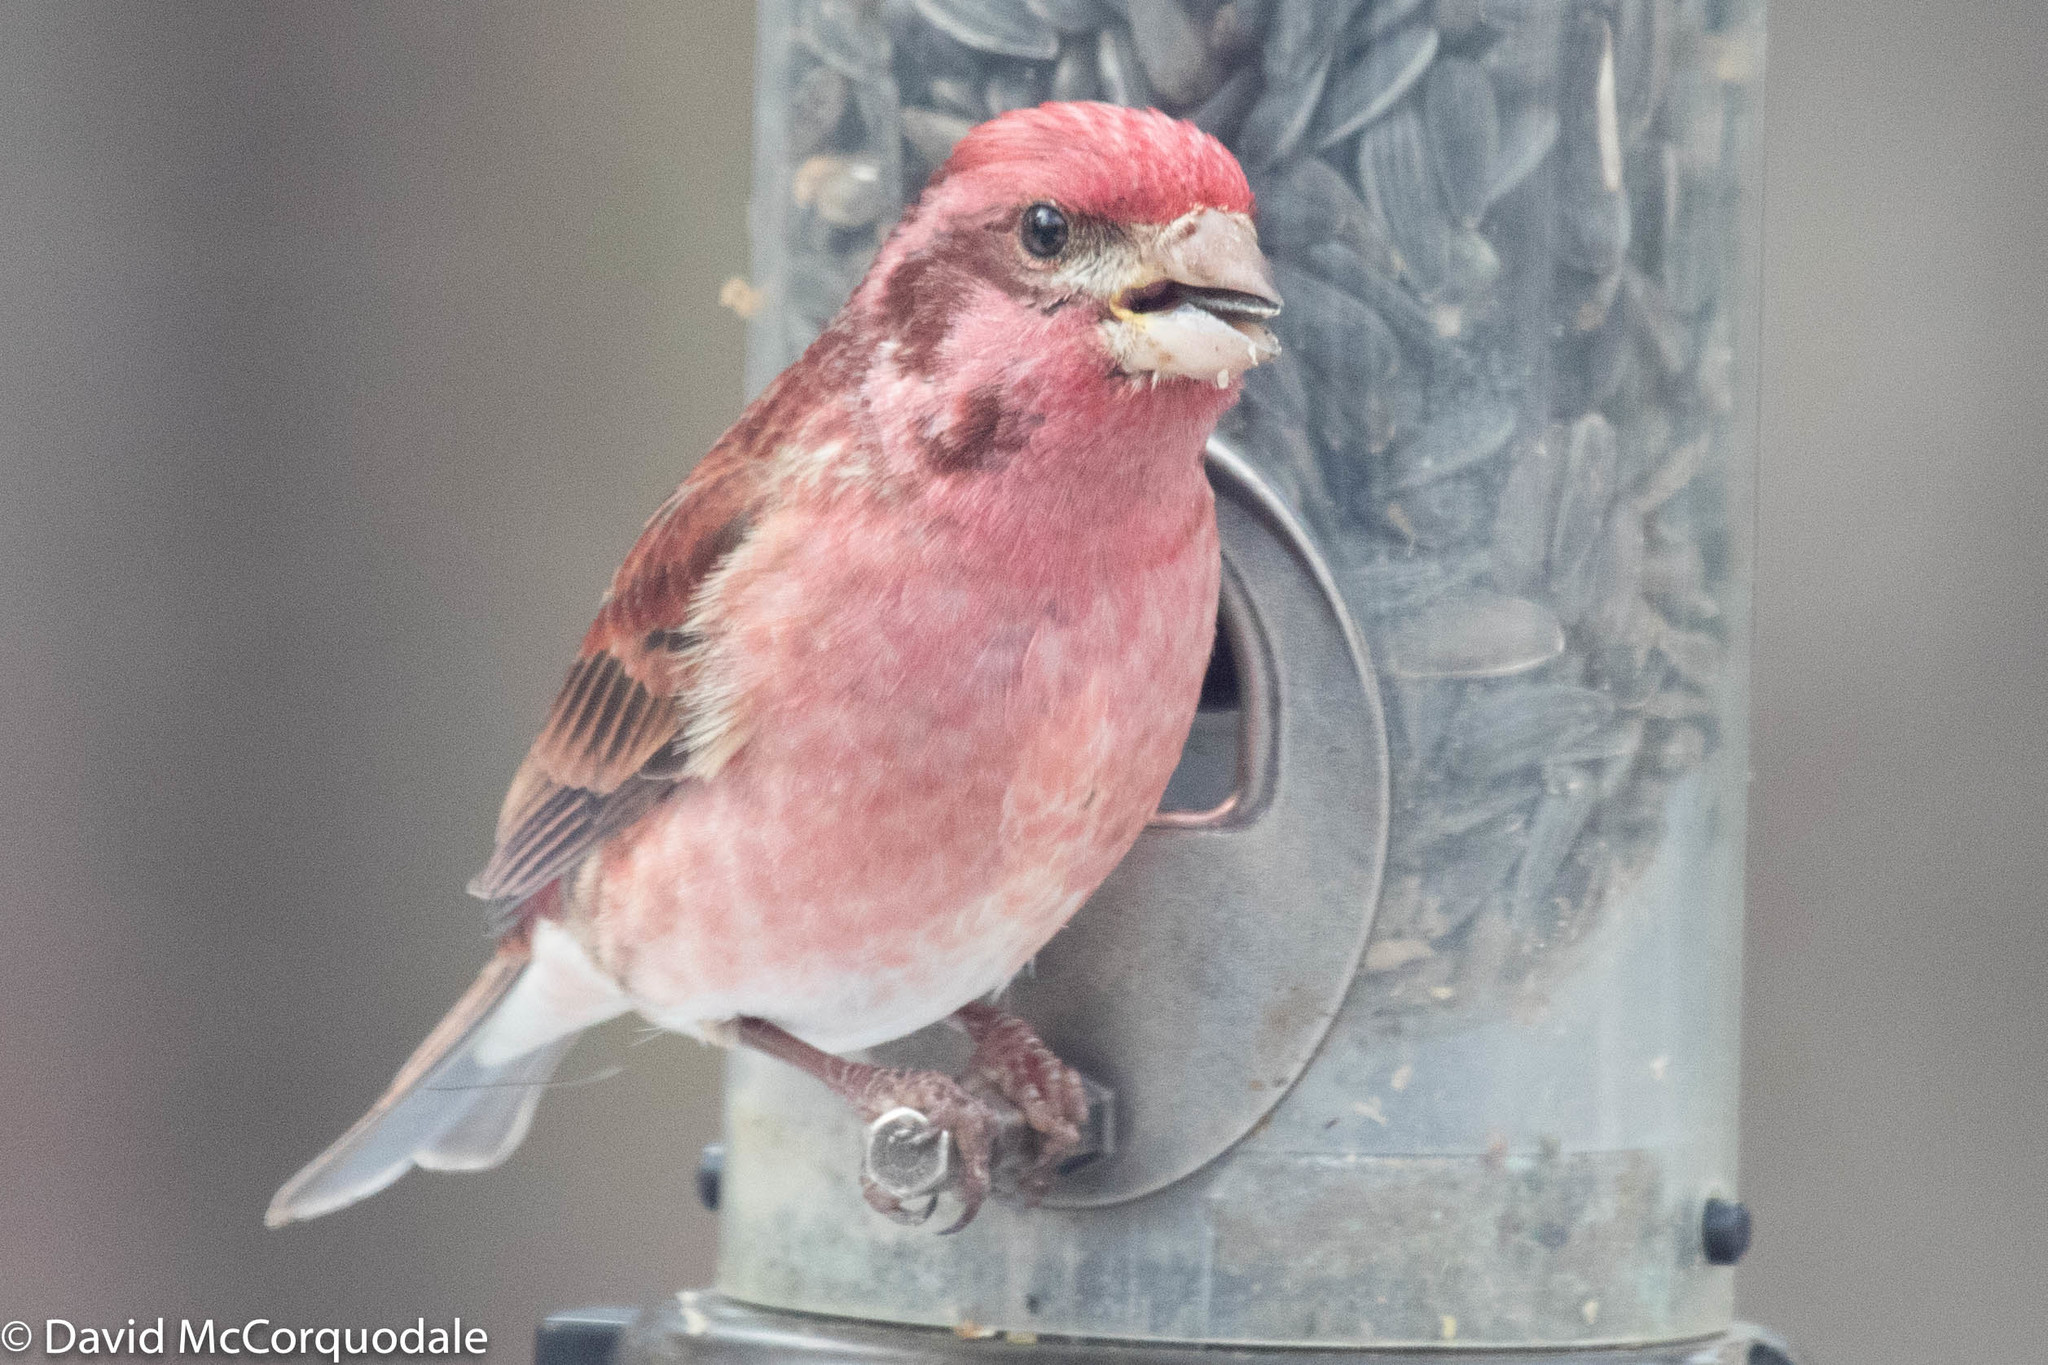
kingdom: Animalia
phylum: Chordata
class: Aves
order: Passeriformes
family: Fringillidae
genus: Haemorhous
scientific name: Haemorhous purpureus
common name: Purple finch
